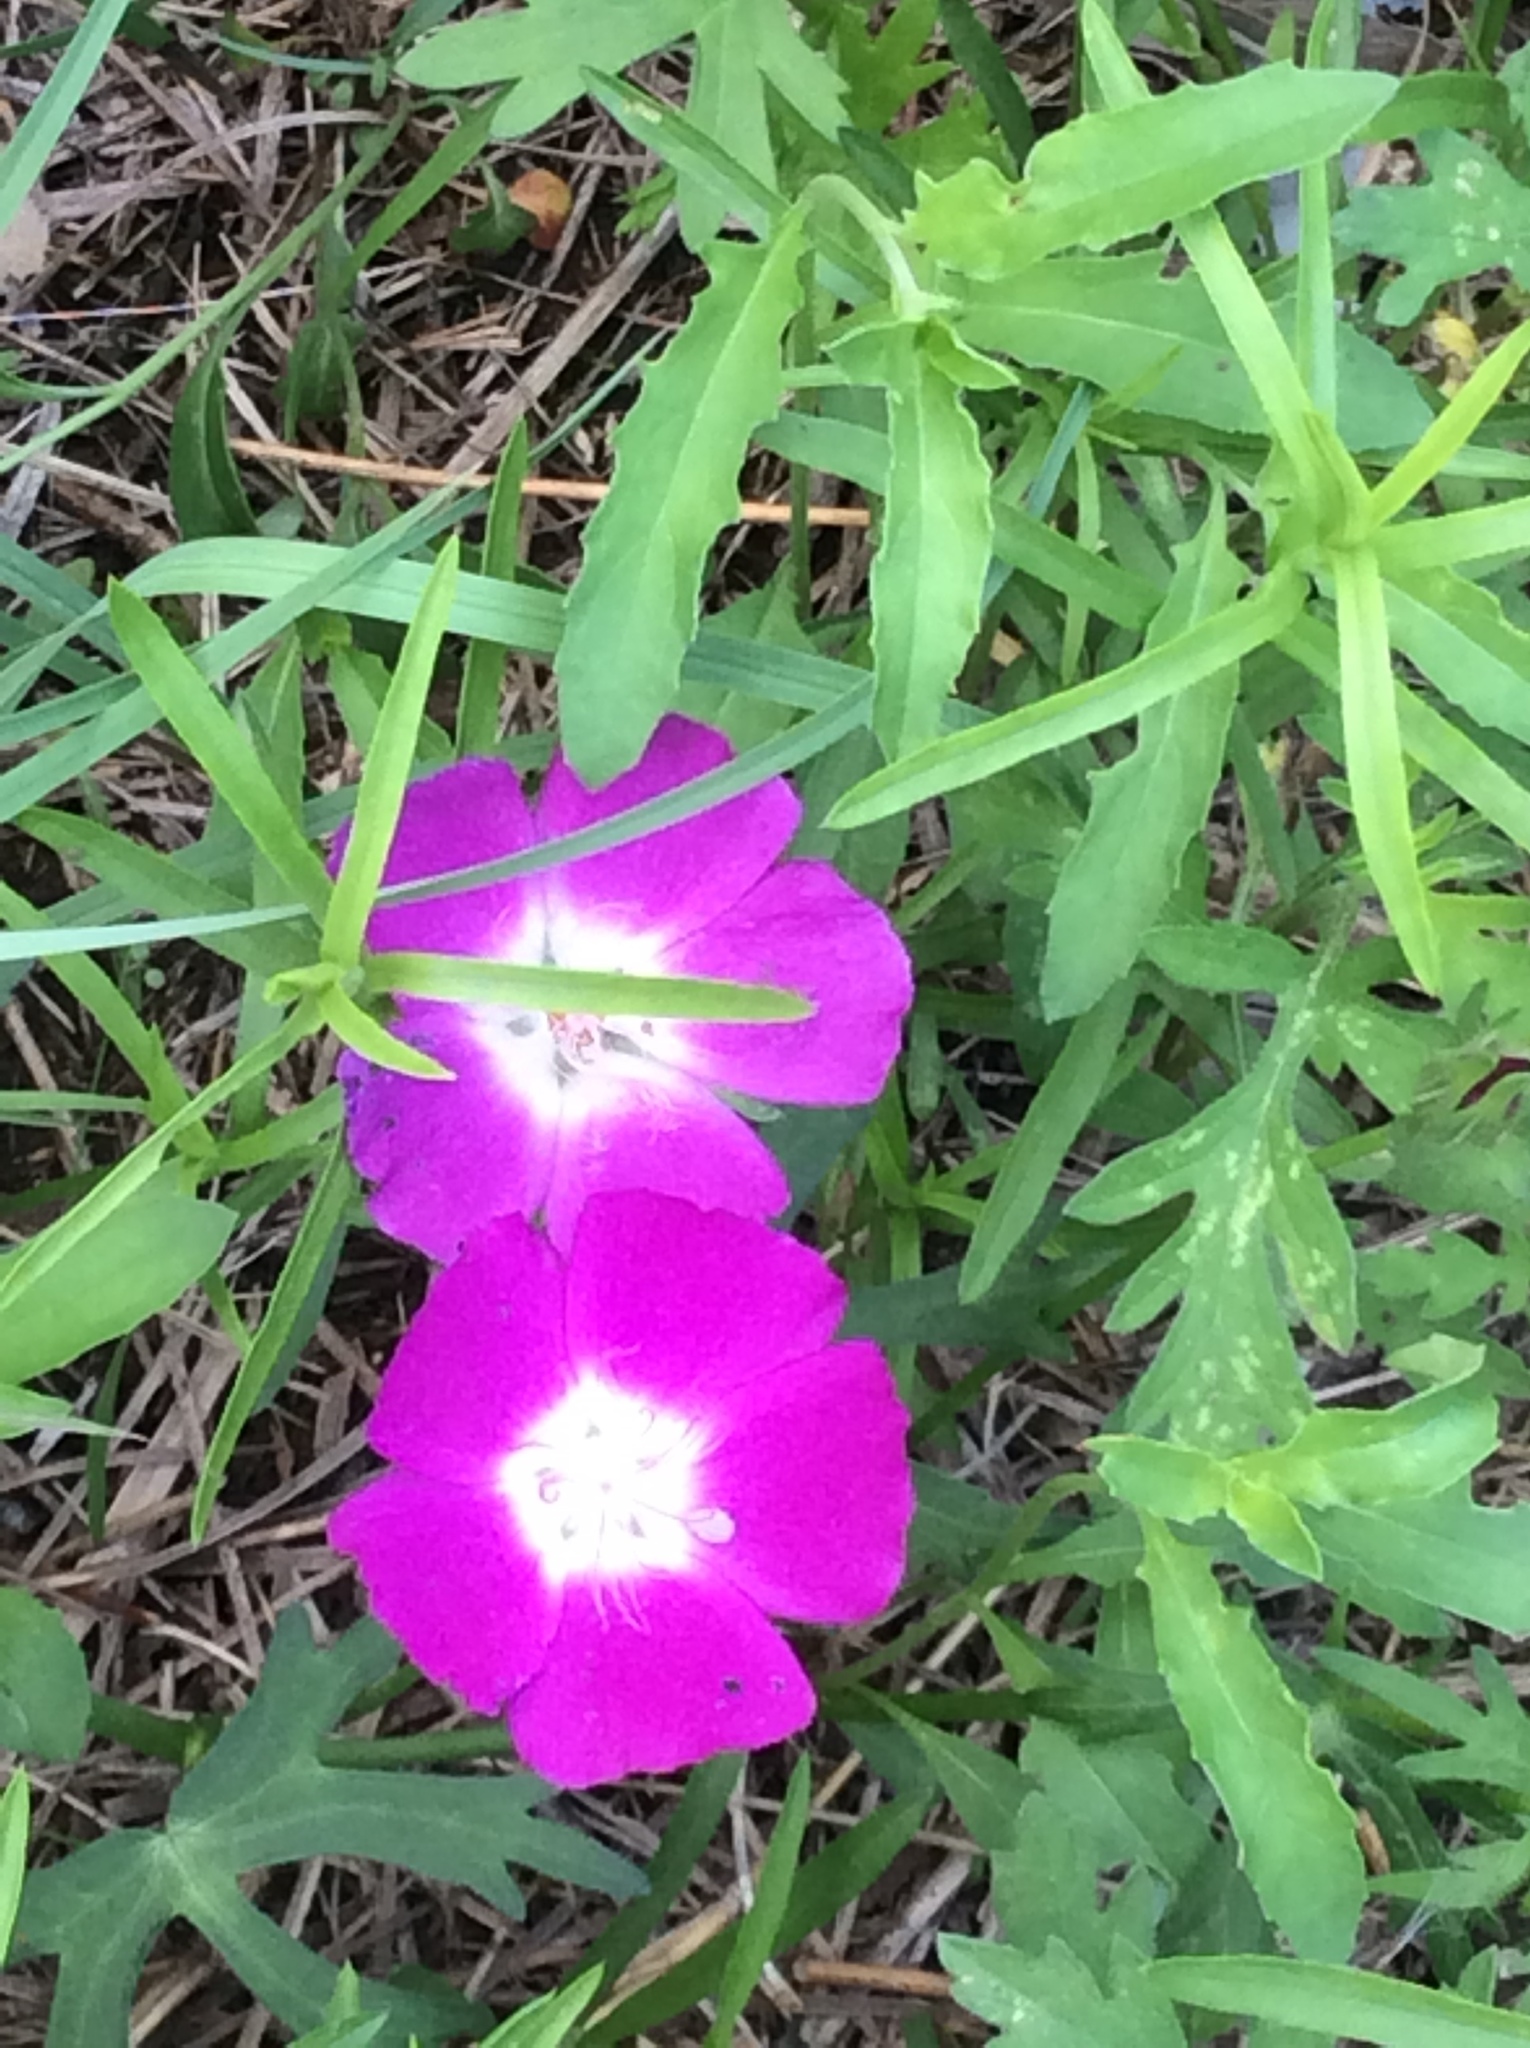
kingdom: Plantae
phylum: Tracheophyta
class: Magnoliopsida
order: Malvales
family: Malvaceae
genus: Callirhoe
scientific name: Callirhoe involucrata
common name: Purple poppy-mallow
